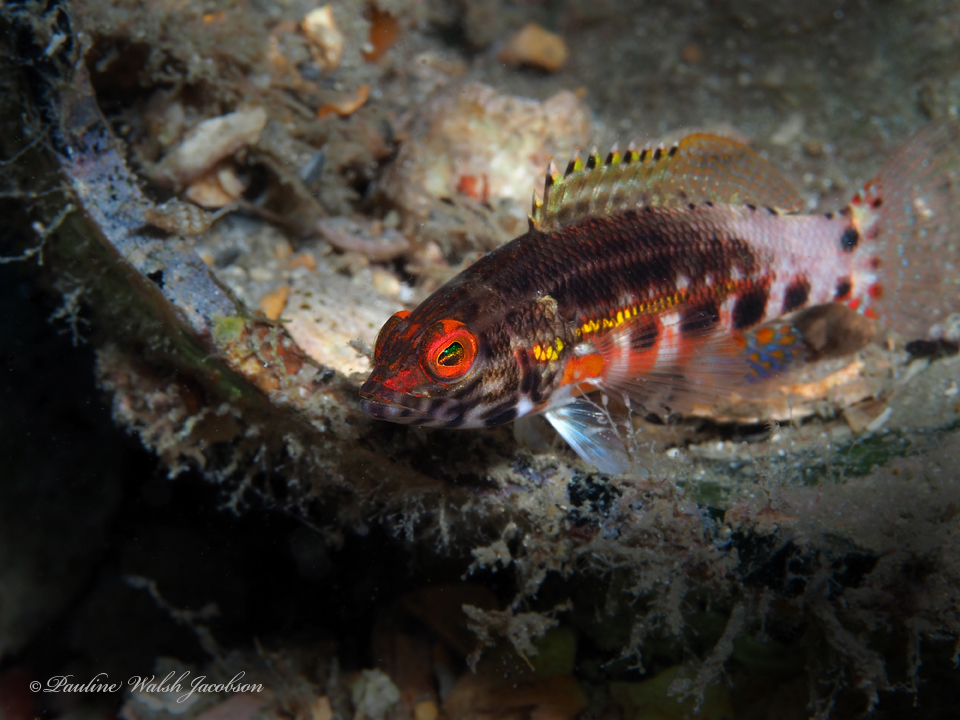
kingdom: Animalia
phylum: Chordata
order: Perciformes
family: Serranidae
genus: Serranus
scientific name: Serranus baldwini
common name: Lantern bass
